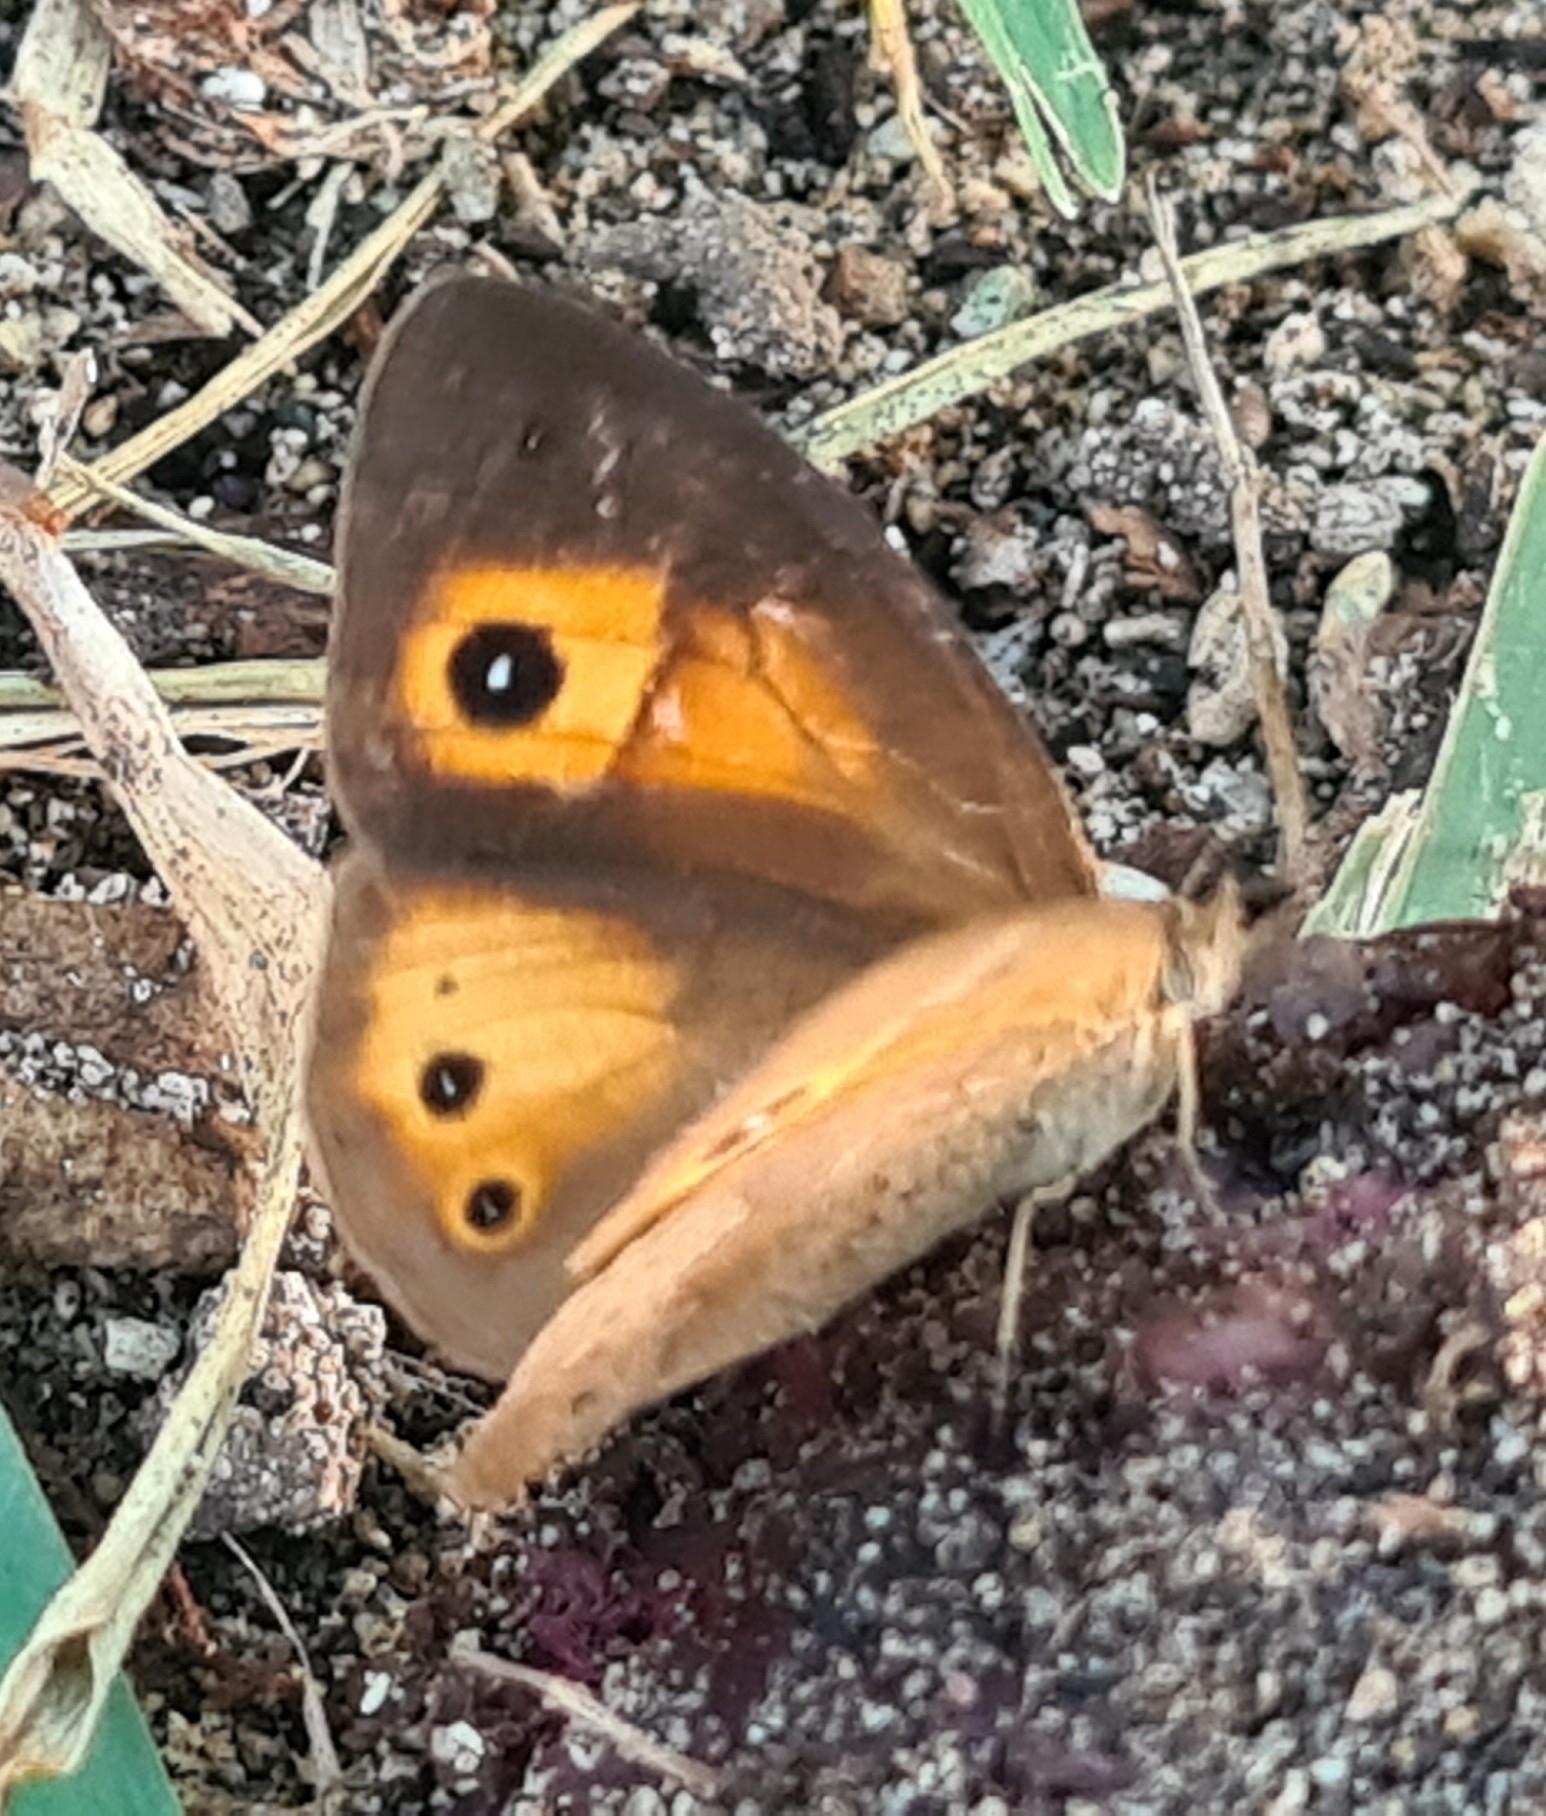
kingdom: Animalia
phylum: Arthropoda
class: Insecta
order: Lepidoptera
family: Nymphalidae
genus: Henotesia
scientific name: Henotesia narcissus
